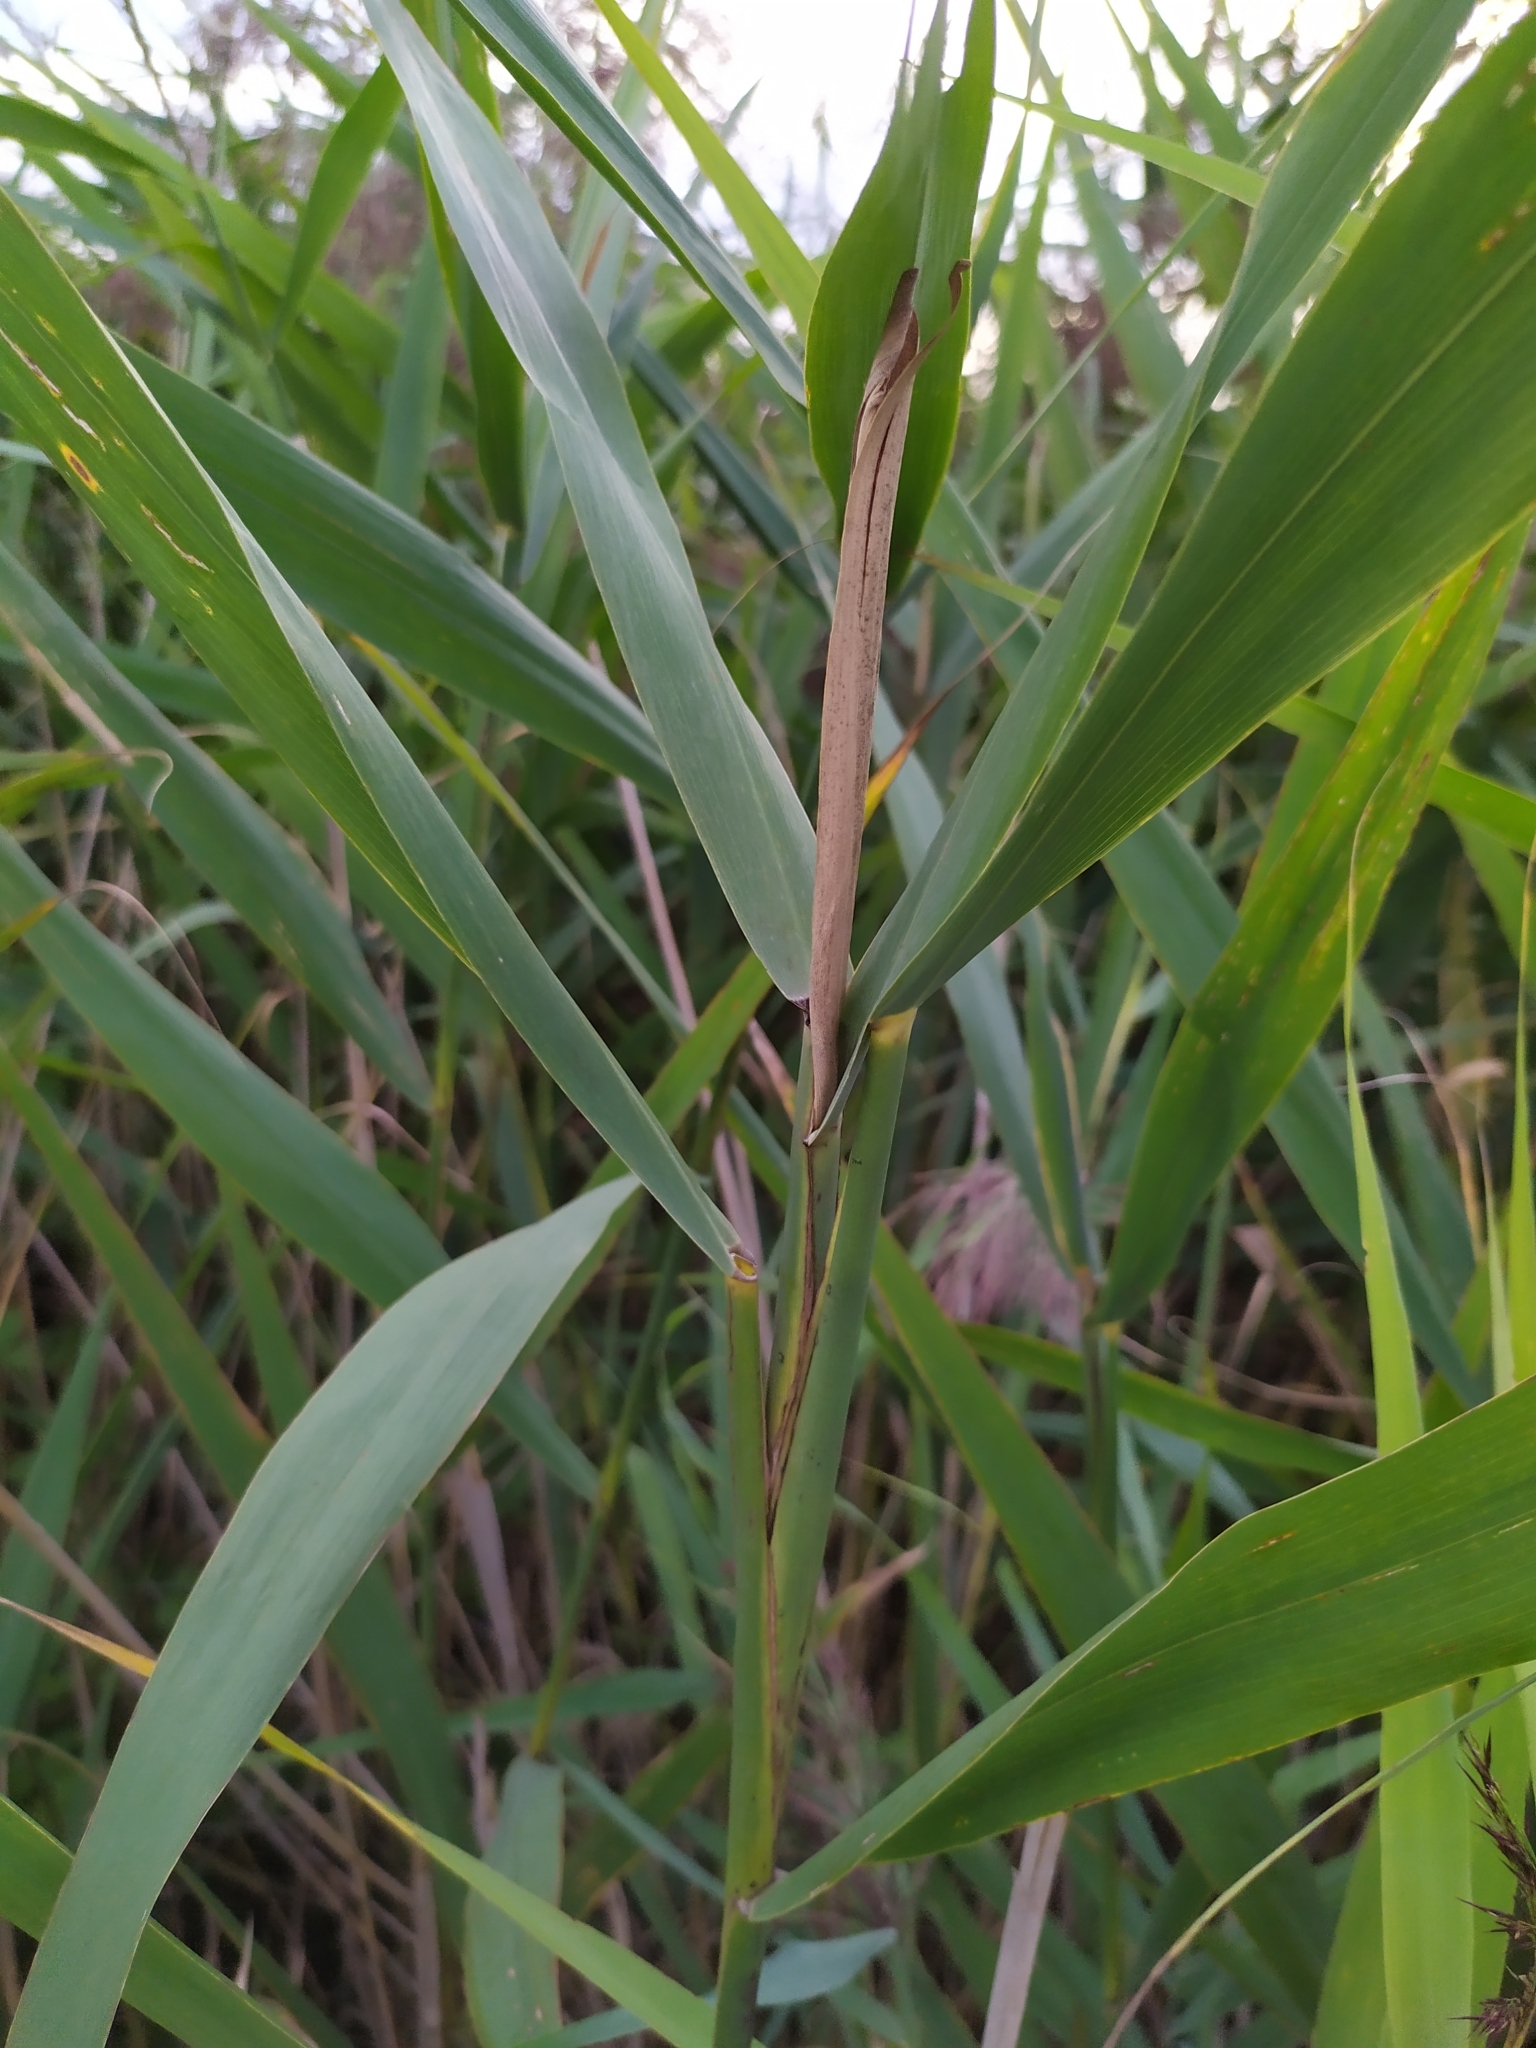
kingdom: Animalia
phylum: Arthropoda
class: Insecta
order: Diptera
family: Chloropidae
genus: Lipara
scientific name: Lipara lucens
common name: Frit fly
